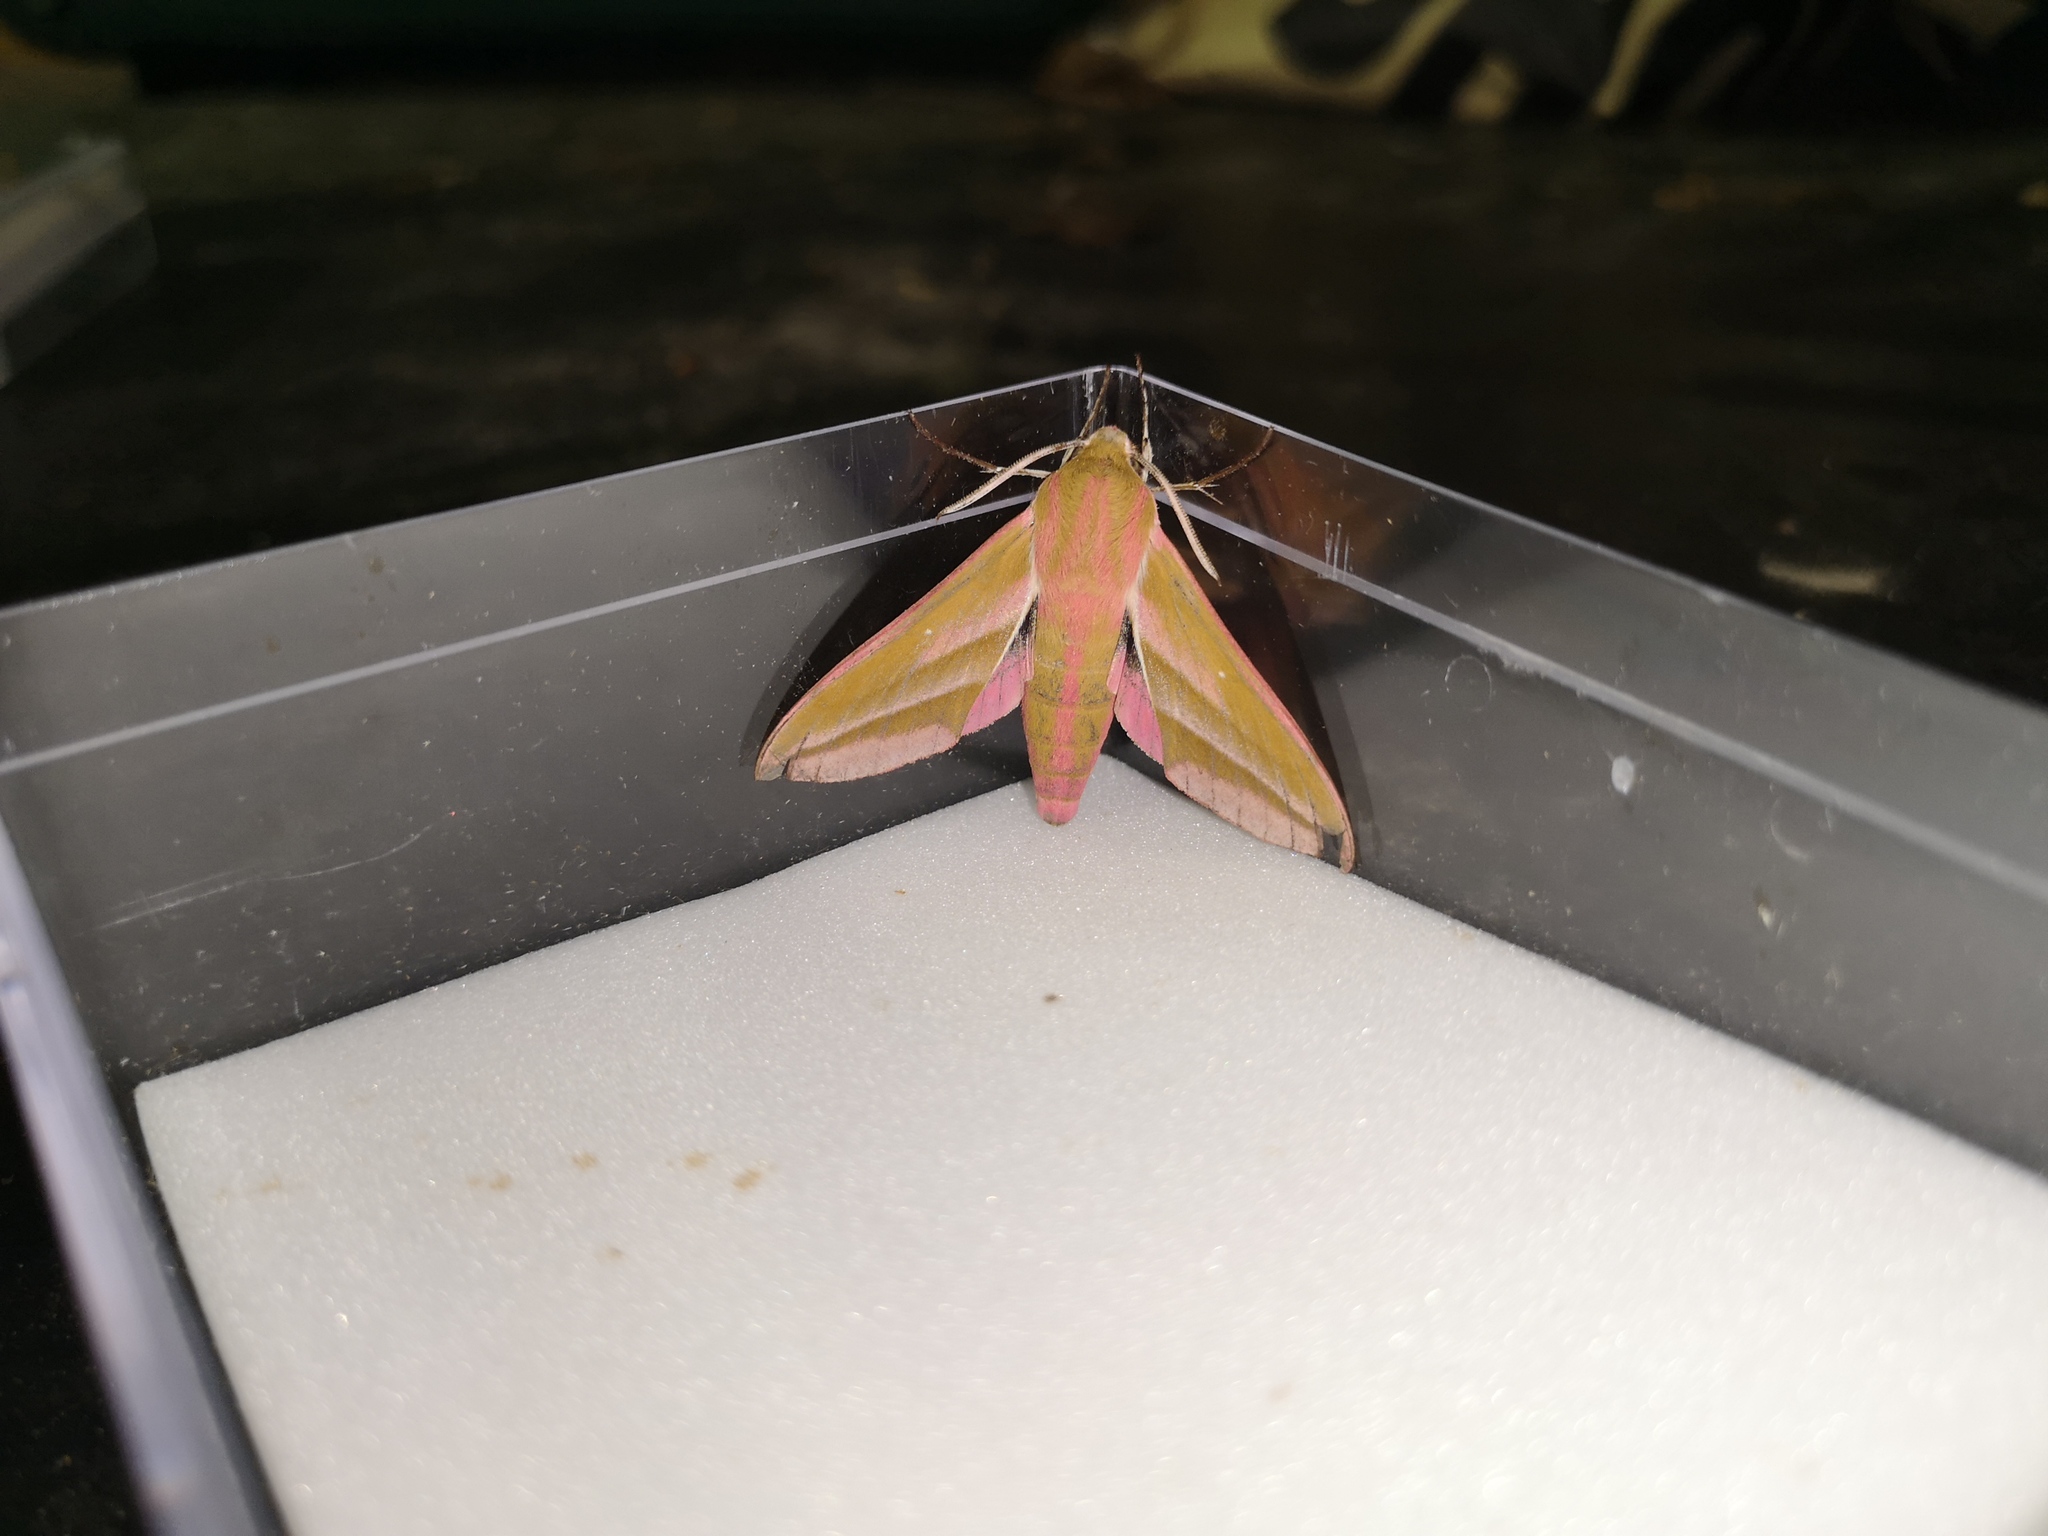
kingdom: Animalia
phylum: Arthropoda
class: Insecta
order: Lepidoptera
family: Sphingidae
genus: Deilephila
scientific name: Deilephila elpenor
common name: Elephant hawk-moth
